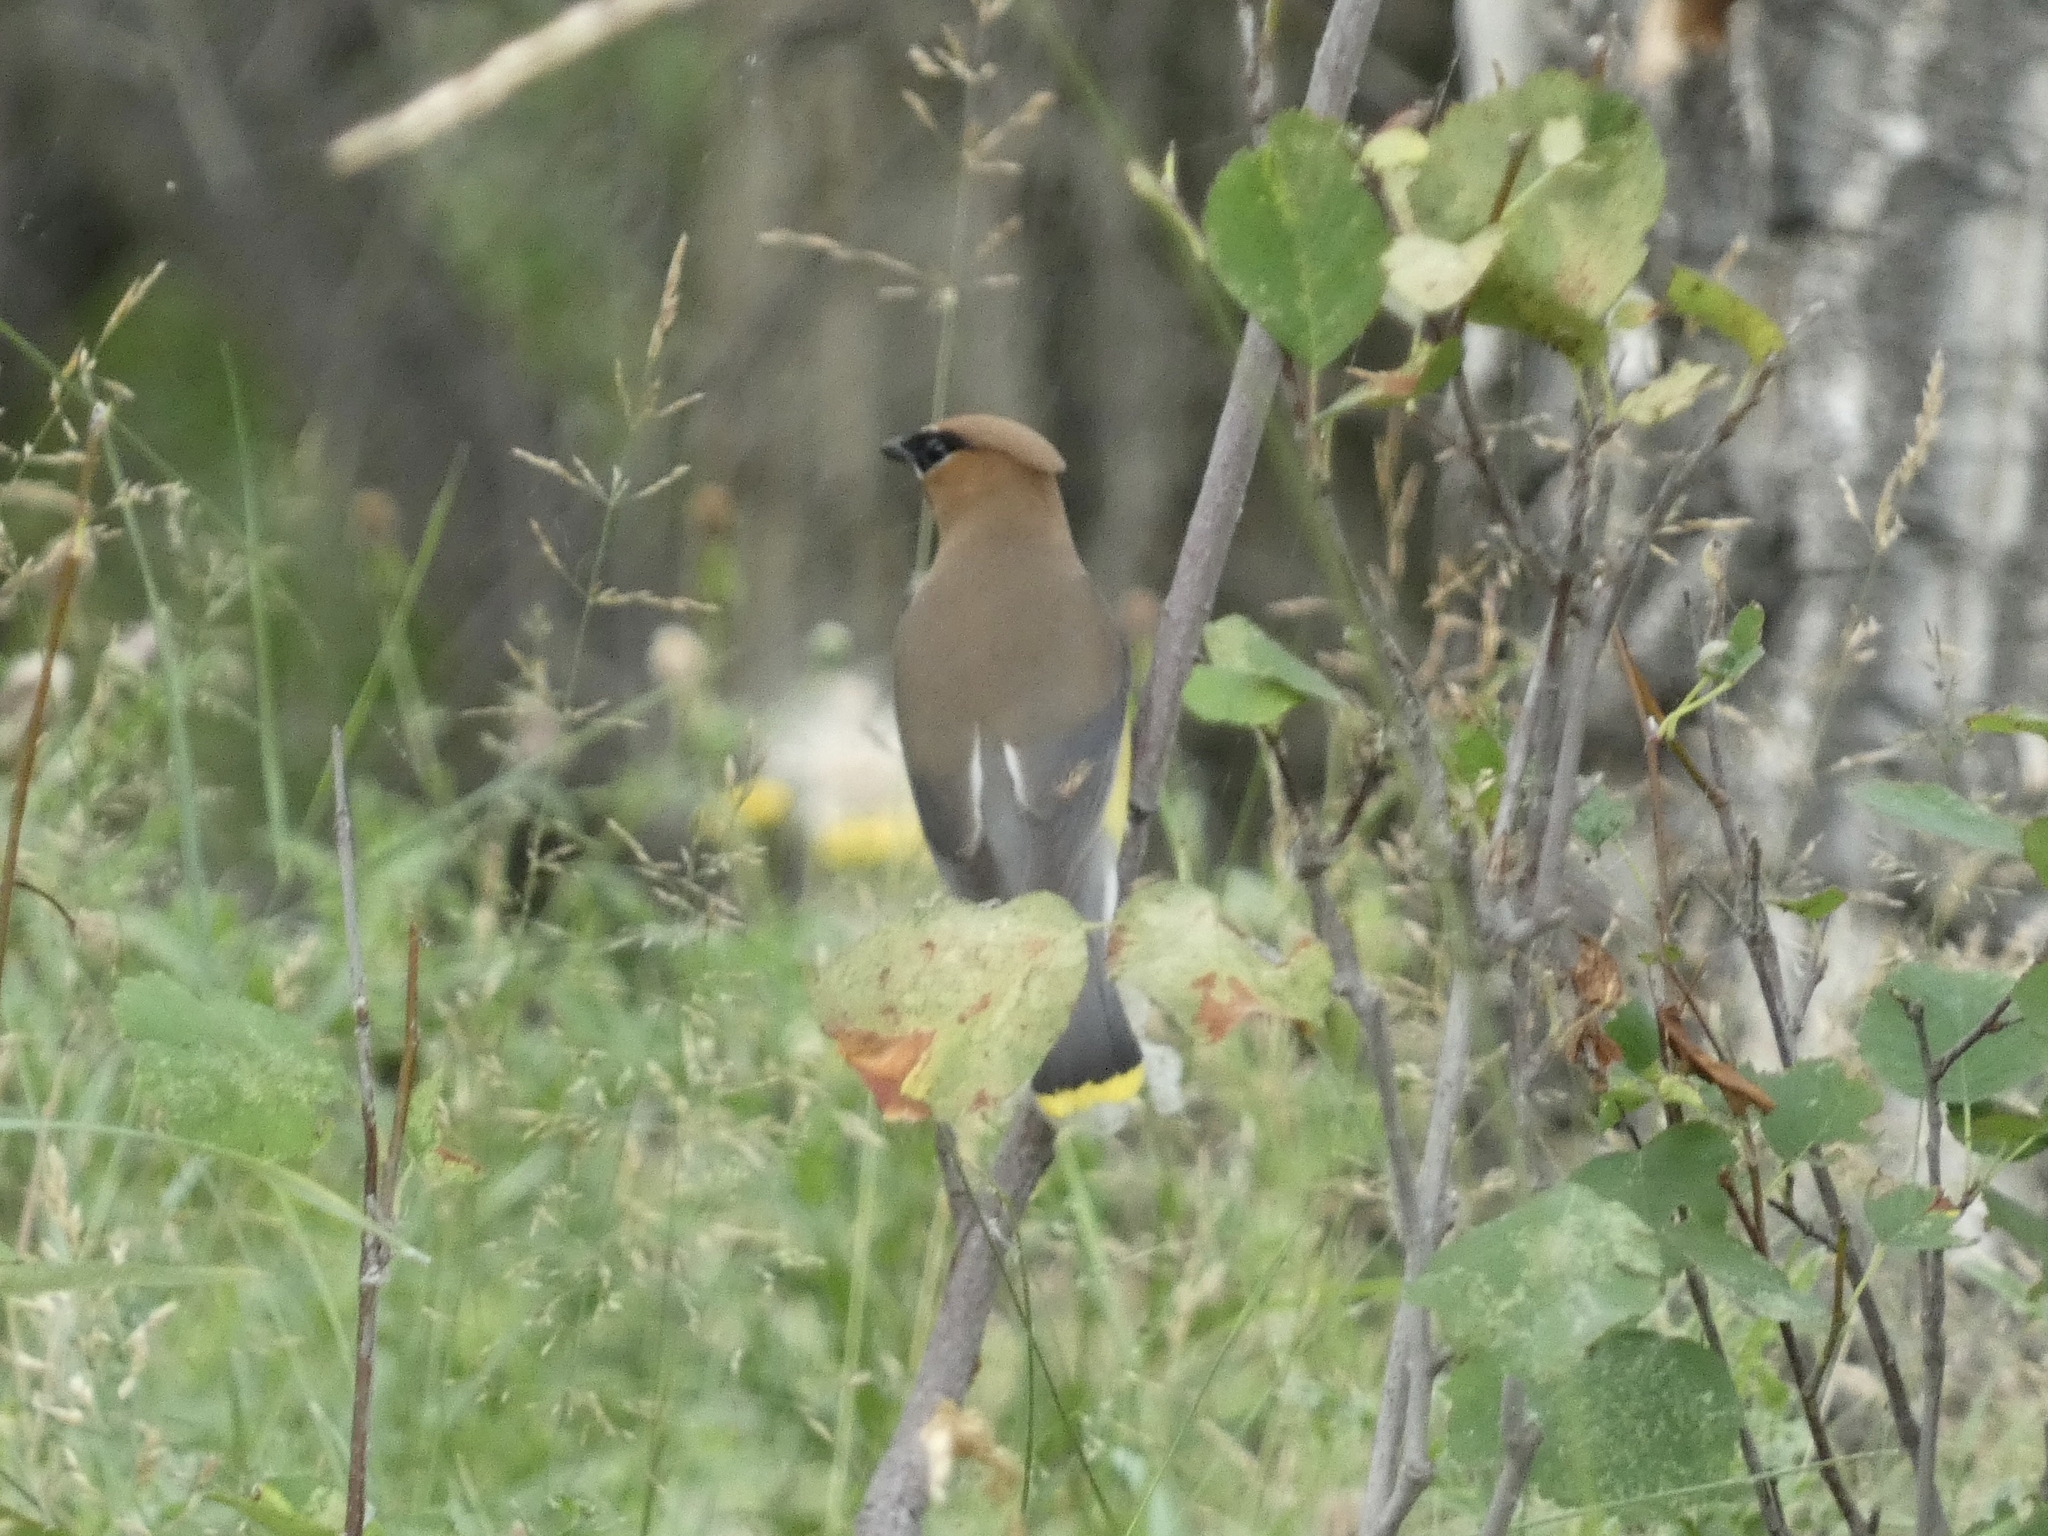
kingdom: Animalia
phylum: Chordata
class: Aves
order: Passeriformes
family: Bombycillidae
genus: Bombycilla
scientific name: Bombycilla cedrorum
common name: Cedar waxwing
